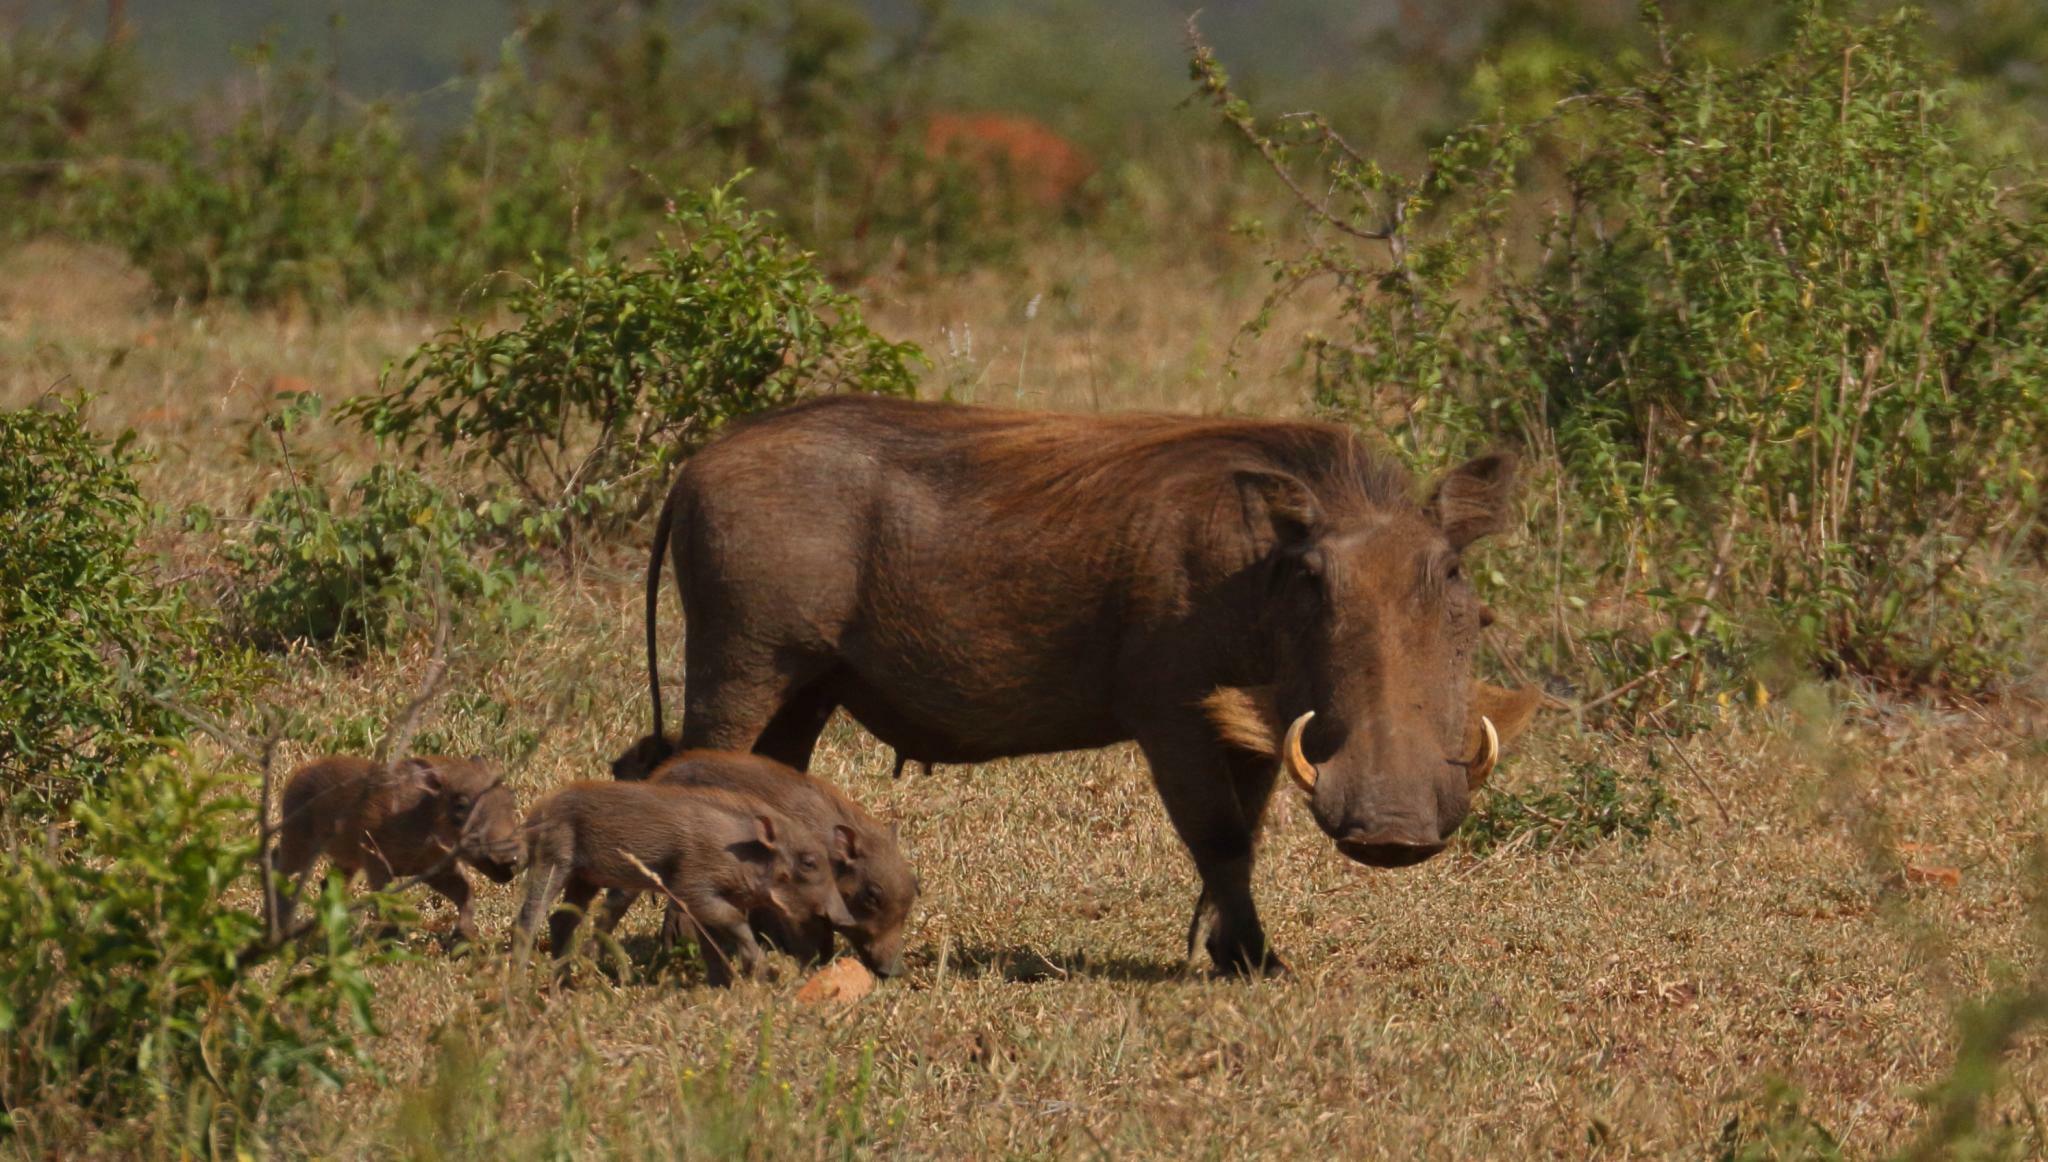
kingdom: Animalia
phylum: Chordata
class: Mammalia
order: Artiodactyla
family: Suidae
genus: Phacochoerus
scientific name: Phacochoerus africanus
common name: Common warthog
